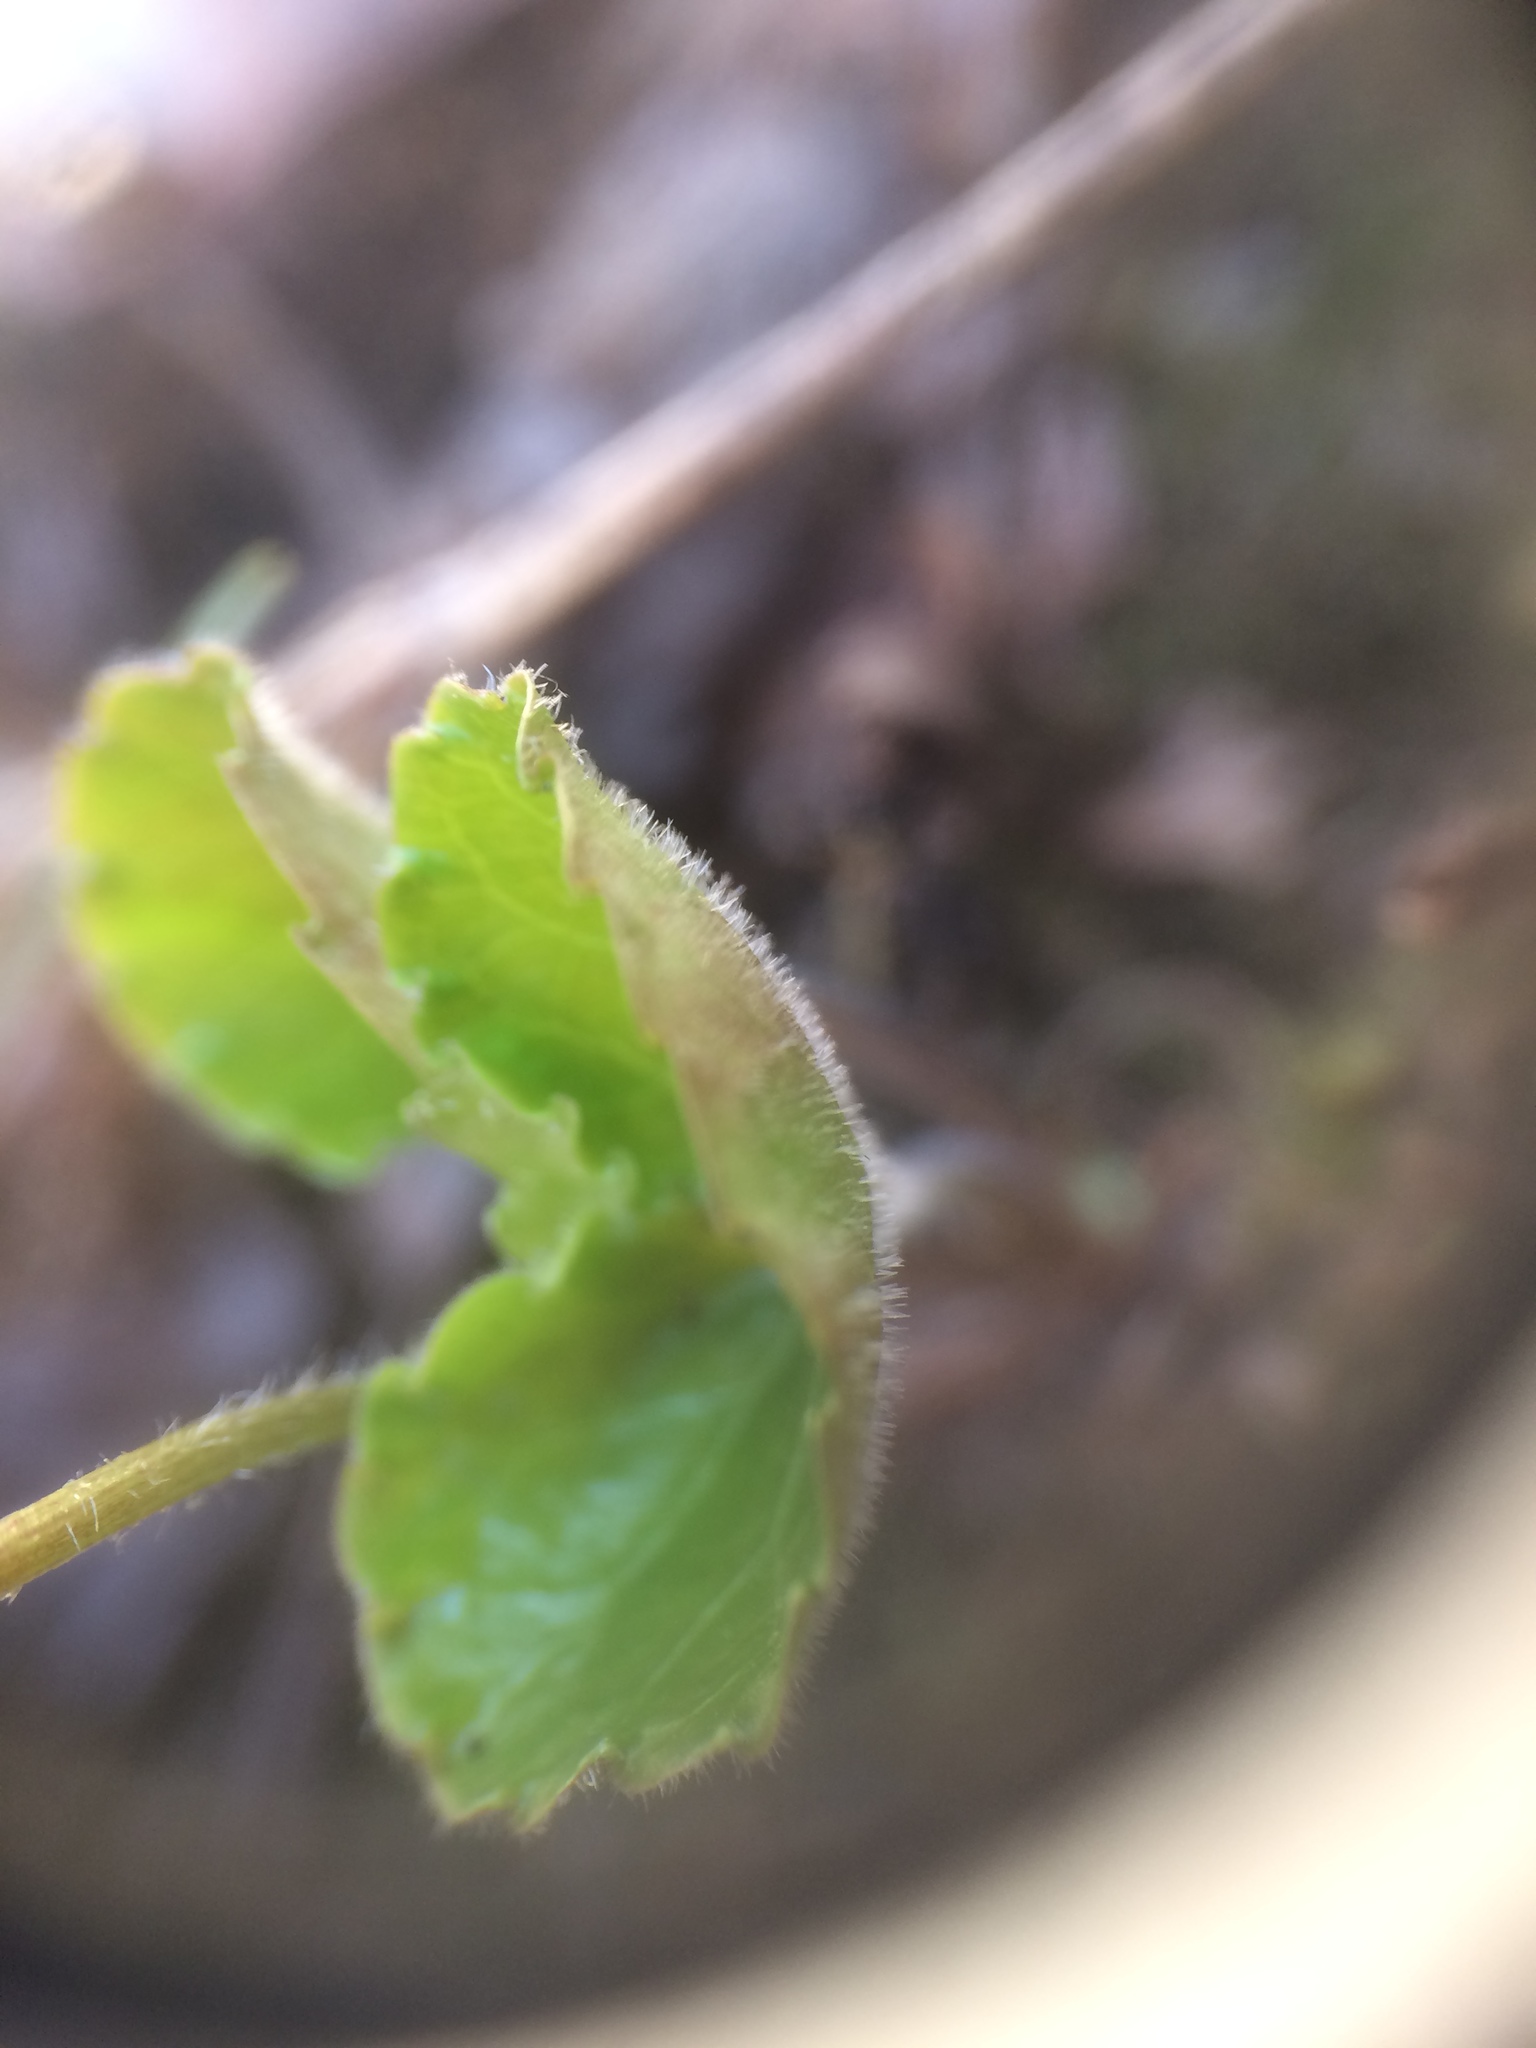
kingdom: Plantae
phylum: Tracheophyta
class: Magnoliopsida
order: Malpighiales
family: Violaceae
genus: Viola
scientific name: Viola incognita
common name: Largeleaf white violet
